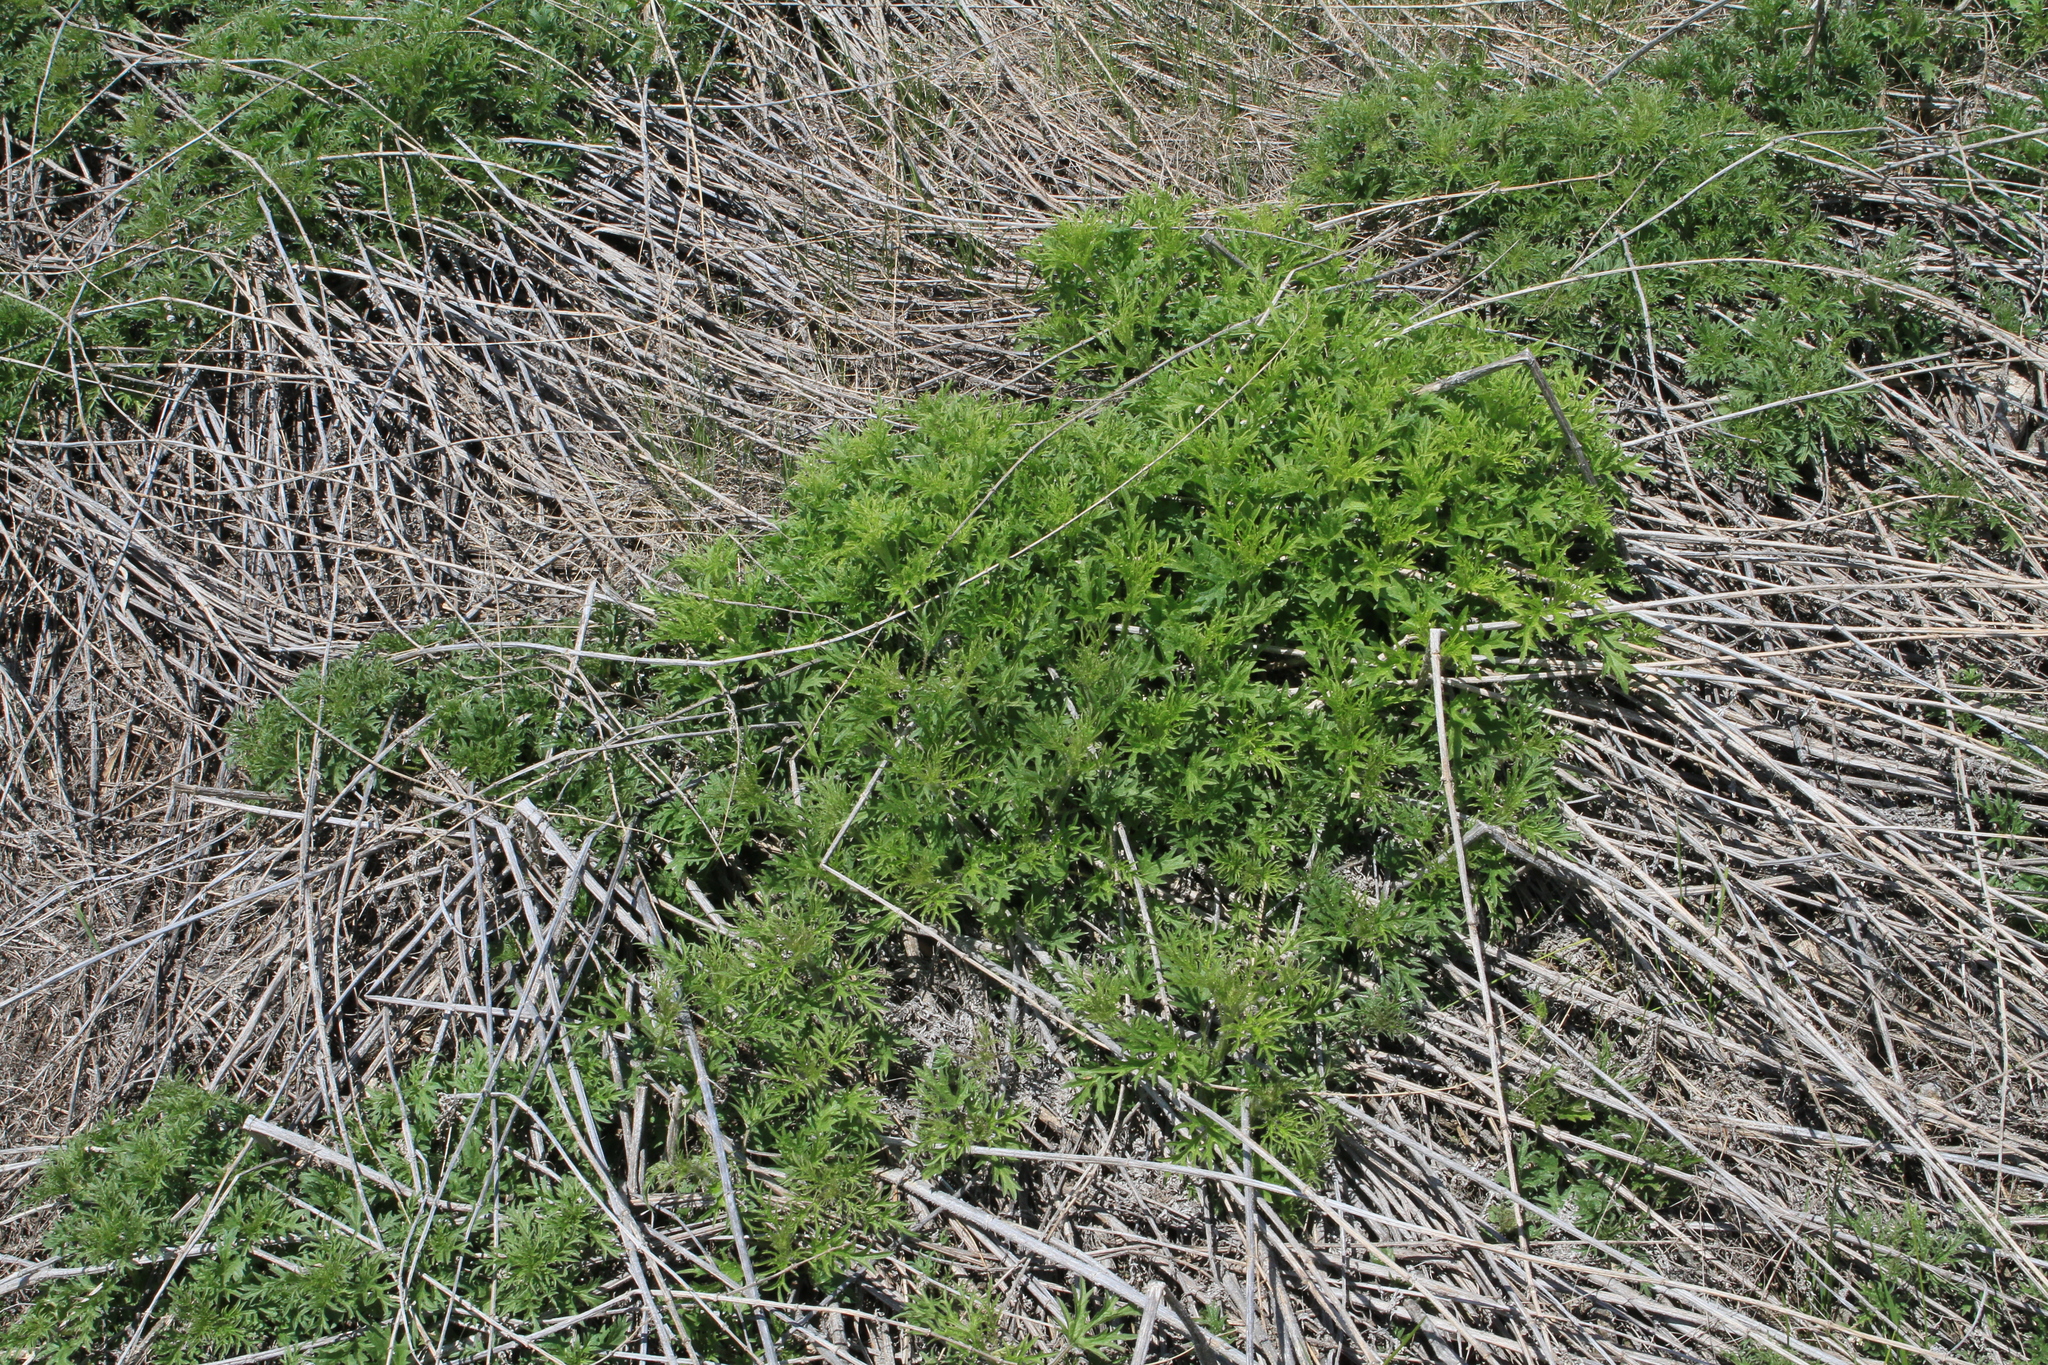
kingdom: Plantae
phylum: Tracheophyta
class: Magnoliopsida
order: Rosales
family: Urticaceae
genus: Urtica
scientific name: Urtica cannabina
